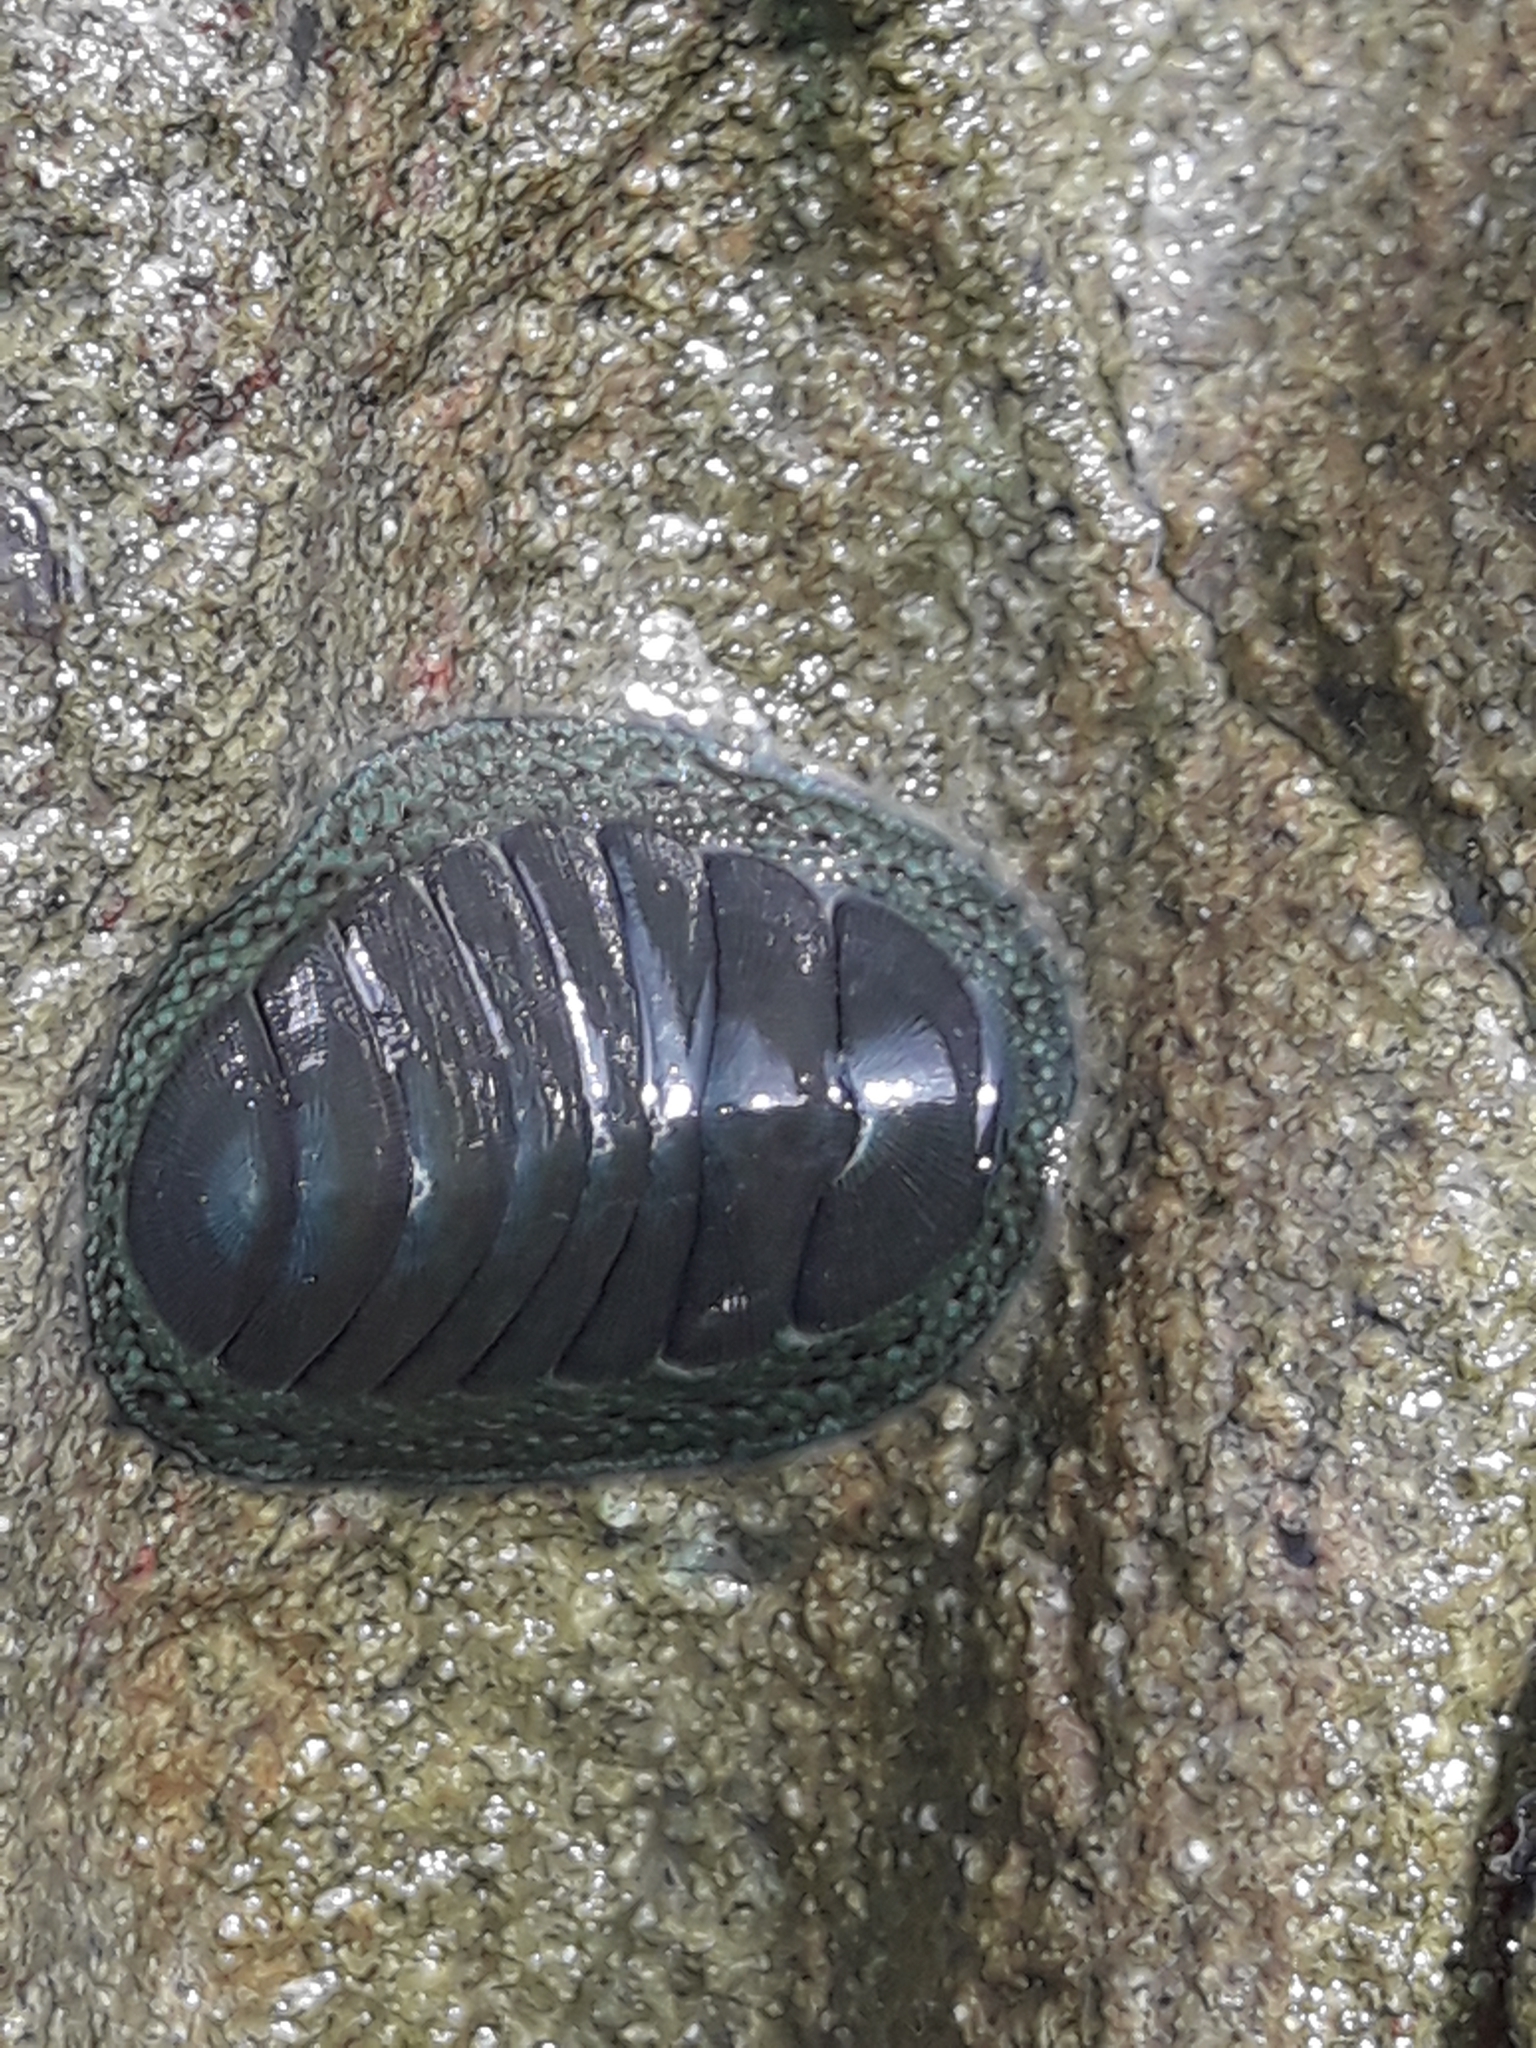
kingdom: Animalia
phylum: Mollusca
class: Polyplacophora
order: Chitonida
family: Chitonidae
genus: Chiton
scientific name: Chiton glaucus
